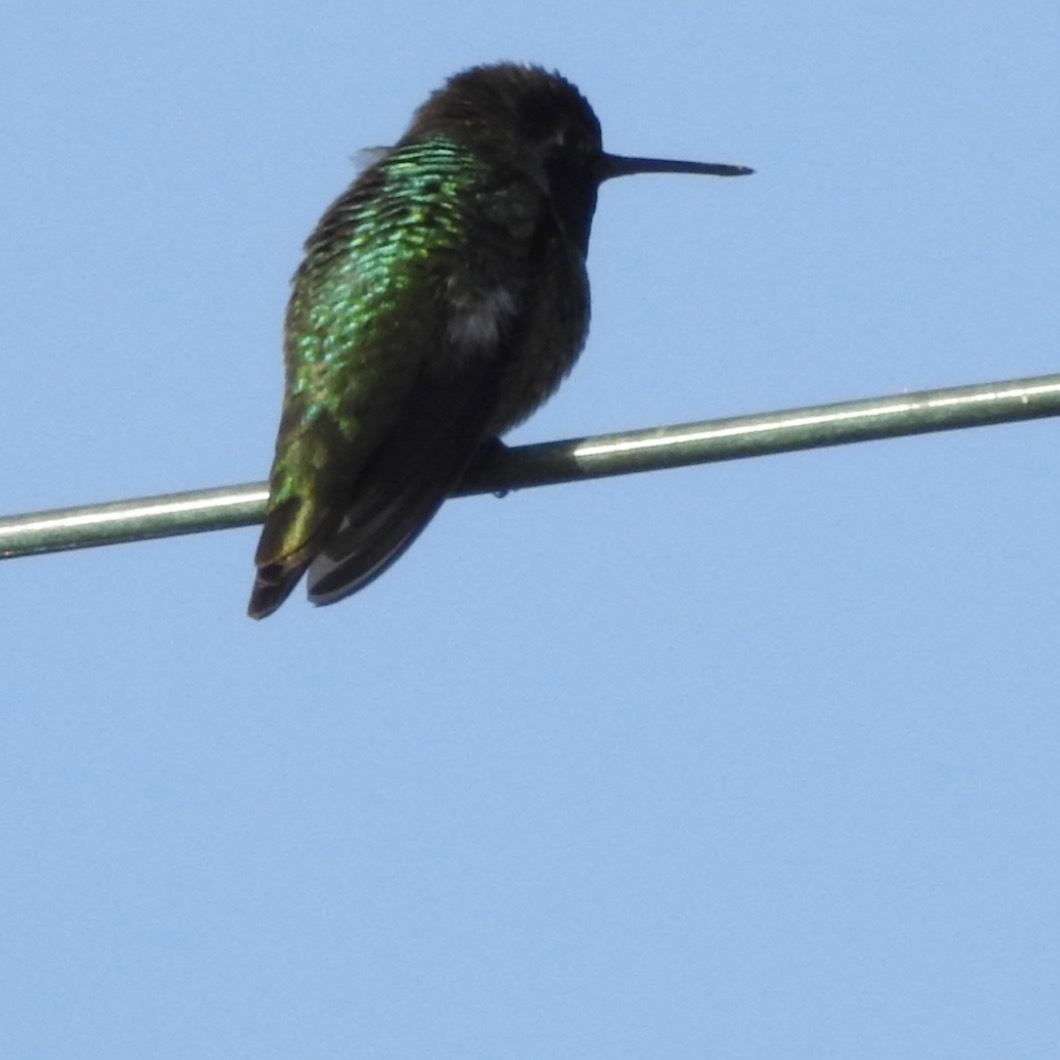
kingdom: Animalia
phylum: Chordata
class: Aves
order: Apodiformes
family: Trochilidae
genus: Calypte
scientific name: Calypte anna
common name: Anna's hummingbird
